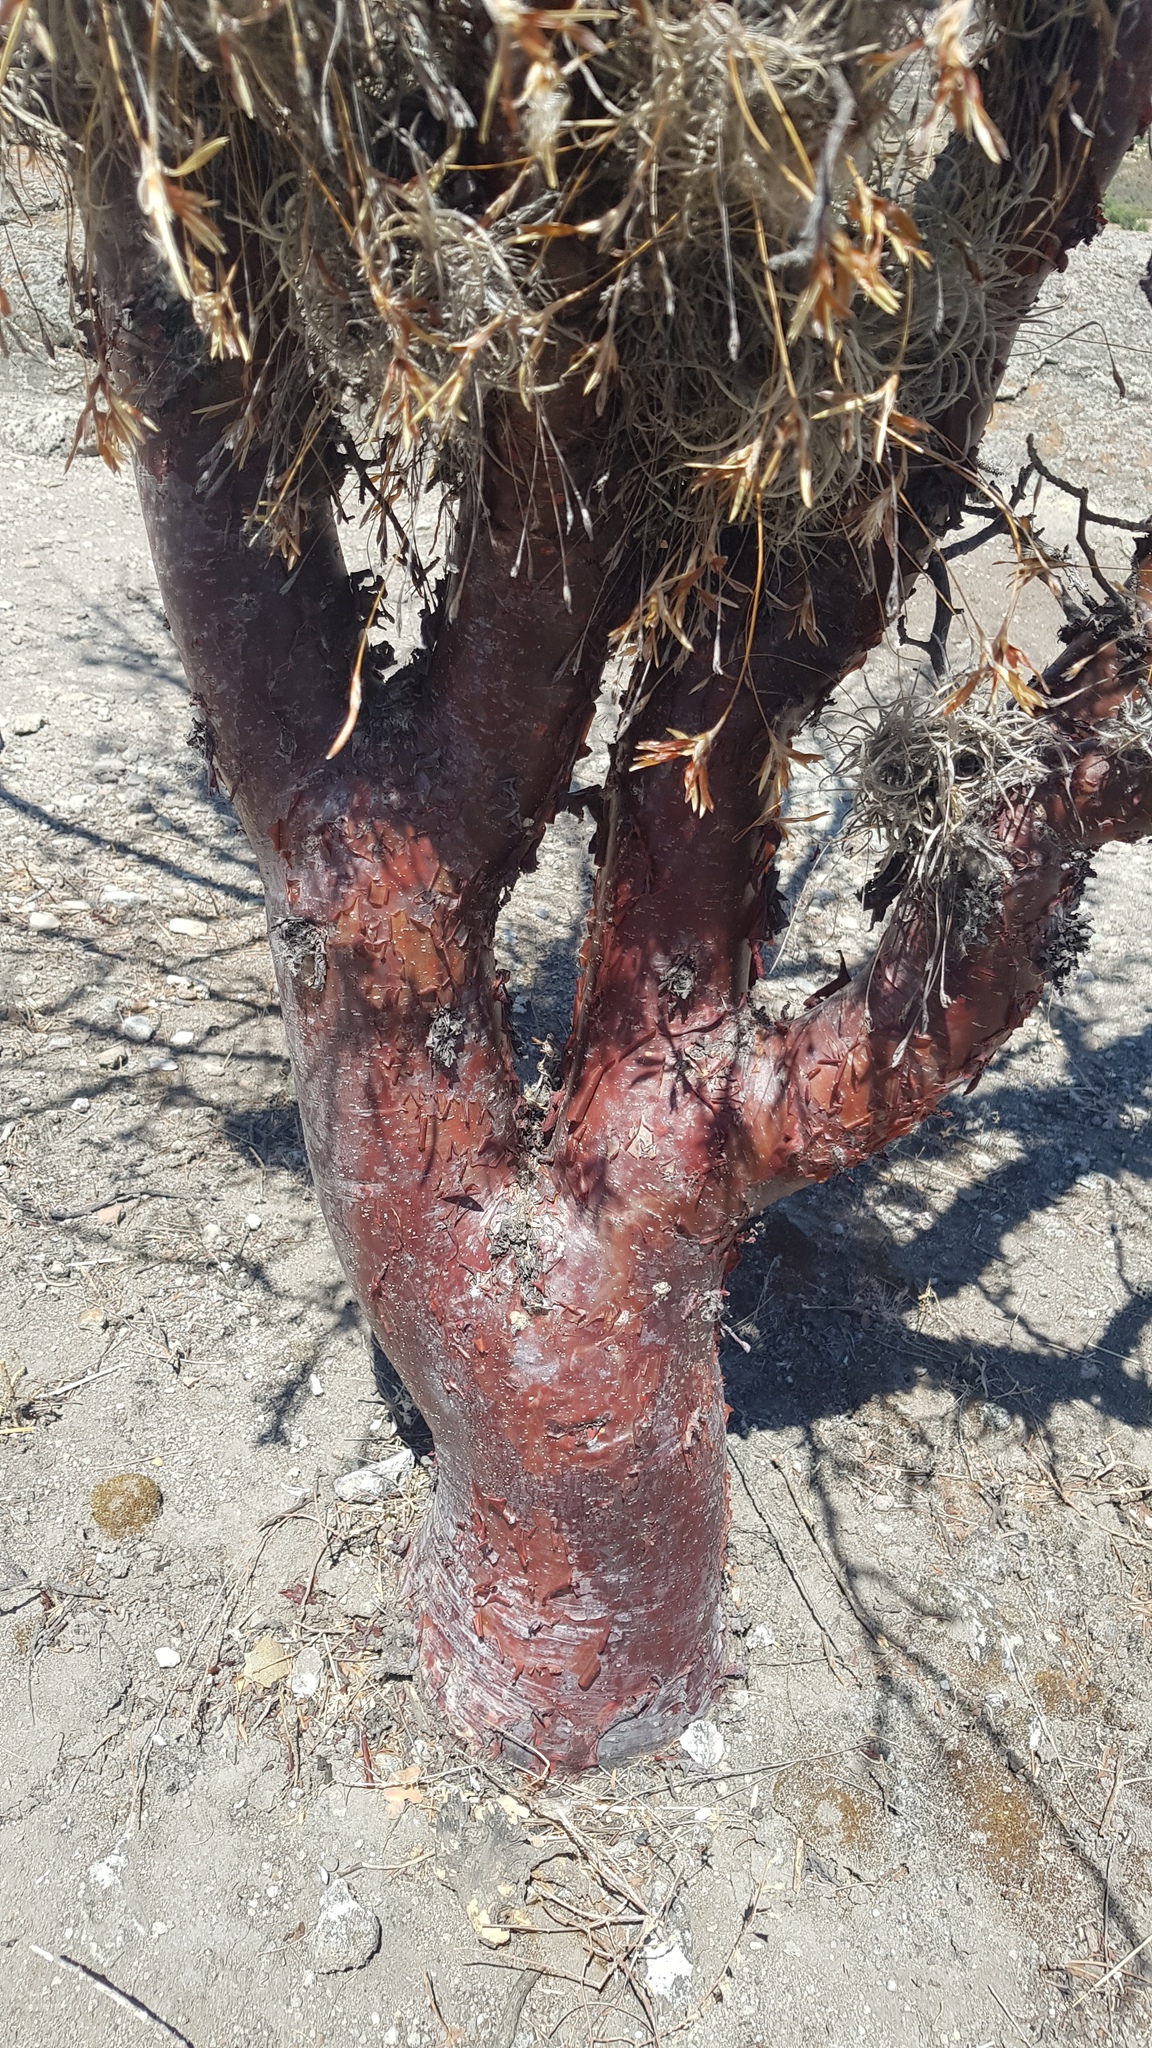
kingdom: Plantae
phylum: Tracheophyta
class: Magnoliopsida
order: Sapindales
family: Burseraceae
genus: Bursera
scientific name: Bursera galeottiana
